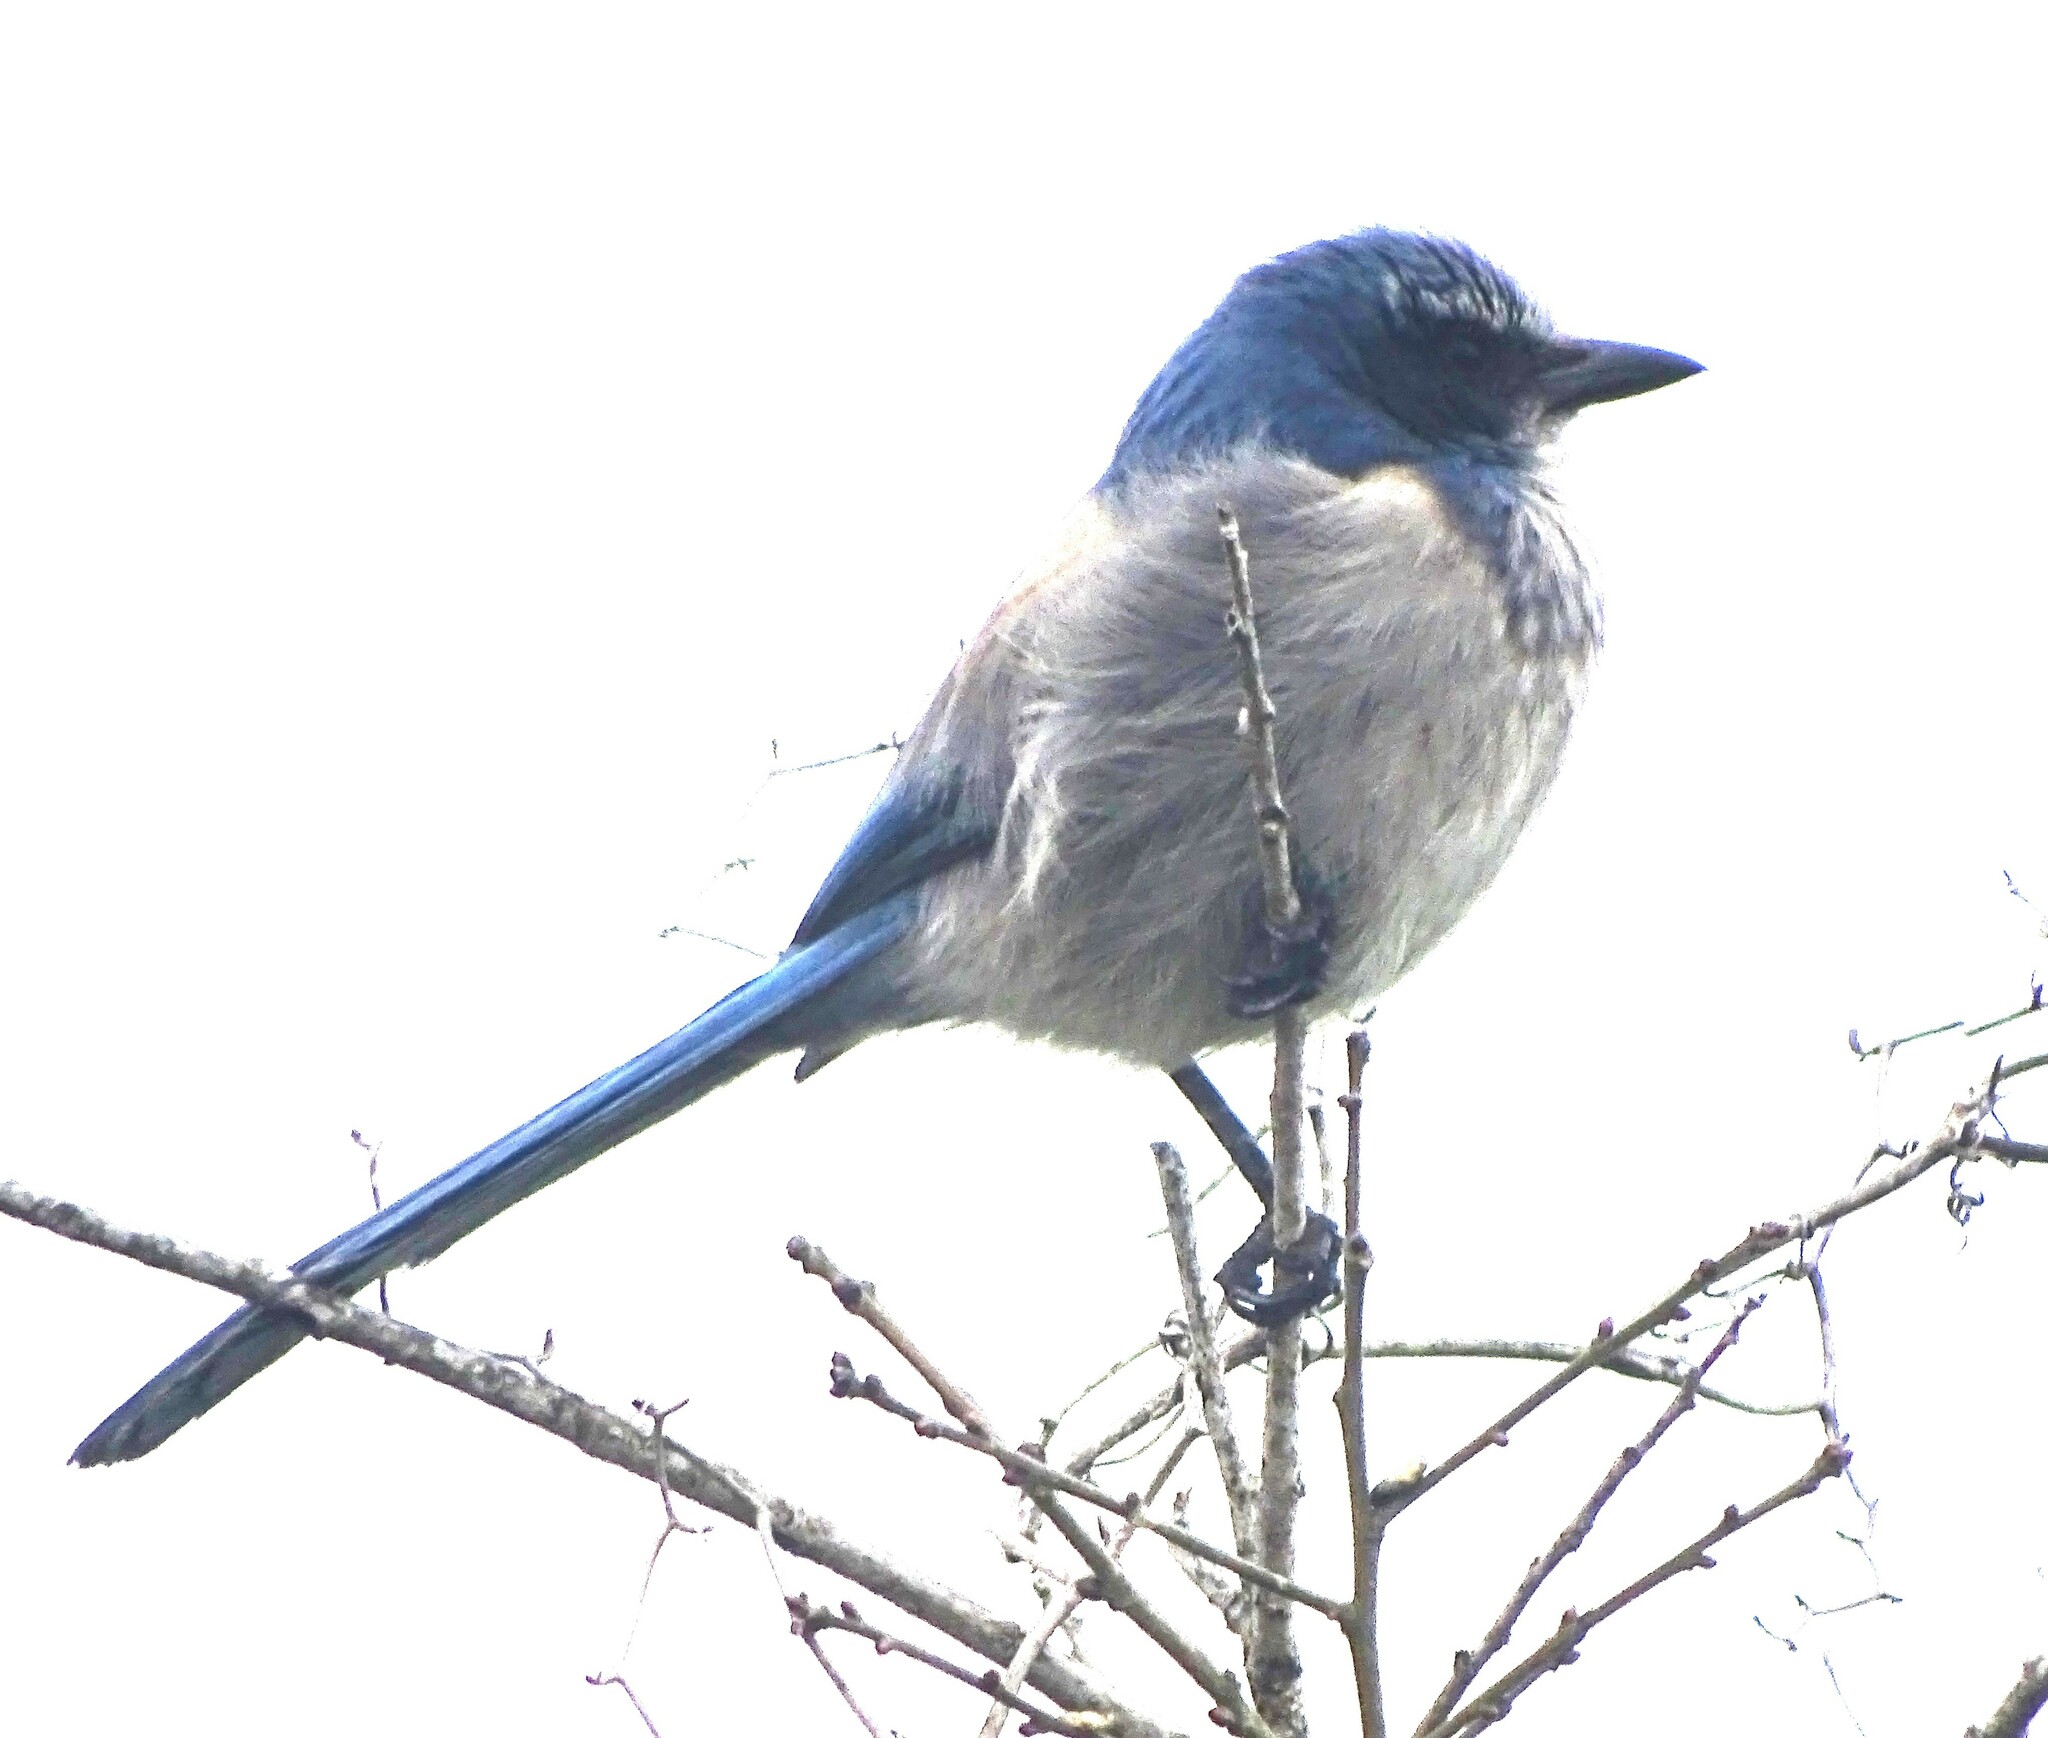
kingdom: Animalia
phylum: Chordata
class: Aves
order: Passeriformes
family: Corvidae
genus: Aphelocoma
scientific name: Aphelocoma coerulescens
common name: Florida scrub jay
